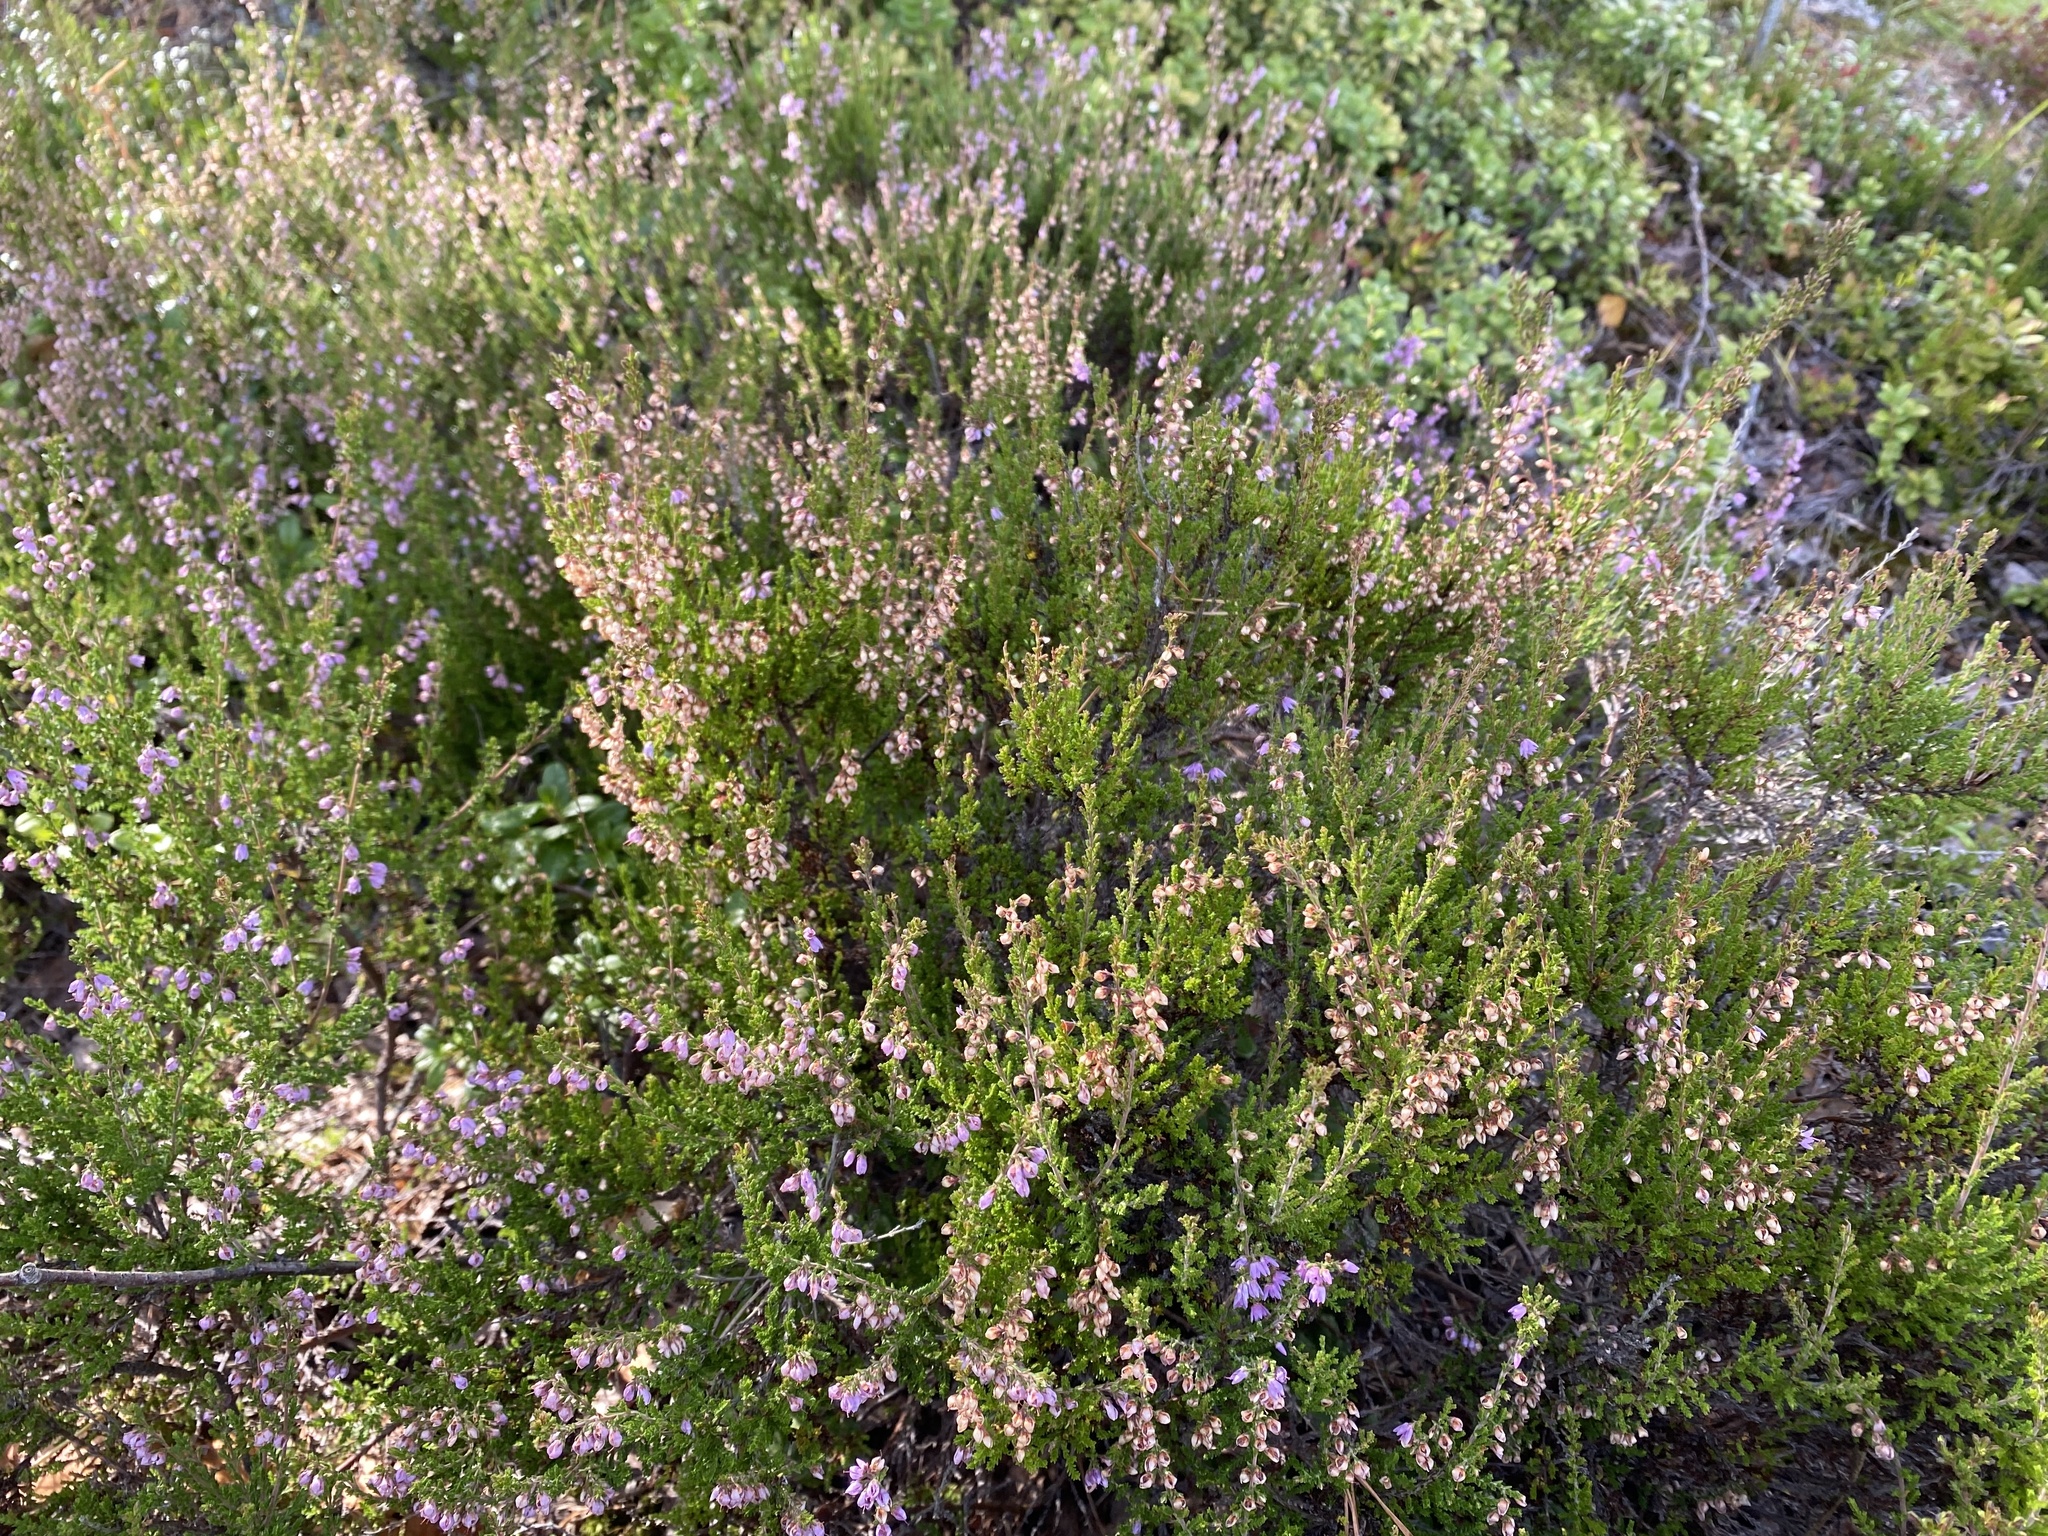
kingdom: Plantae
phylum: Tracheophyta
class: Magnoliopsida
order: Ericales
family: Ericaceae
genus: Calluna
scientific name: Calluna vulgaris
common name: Heather
